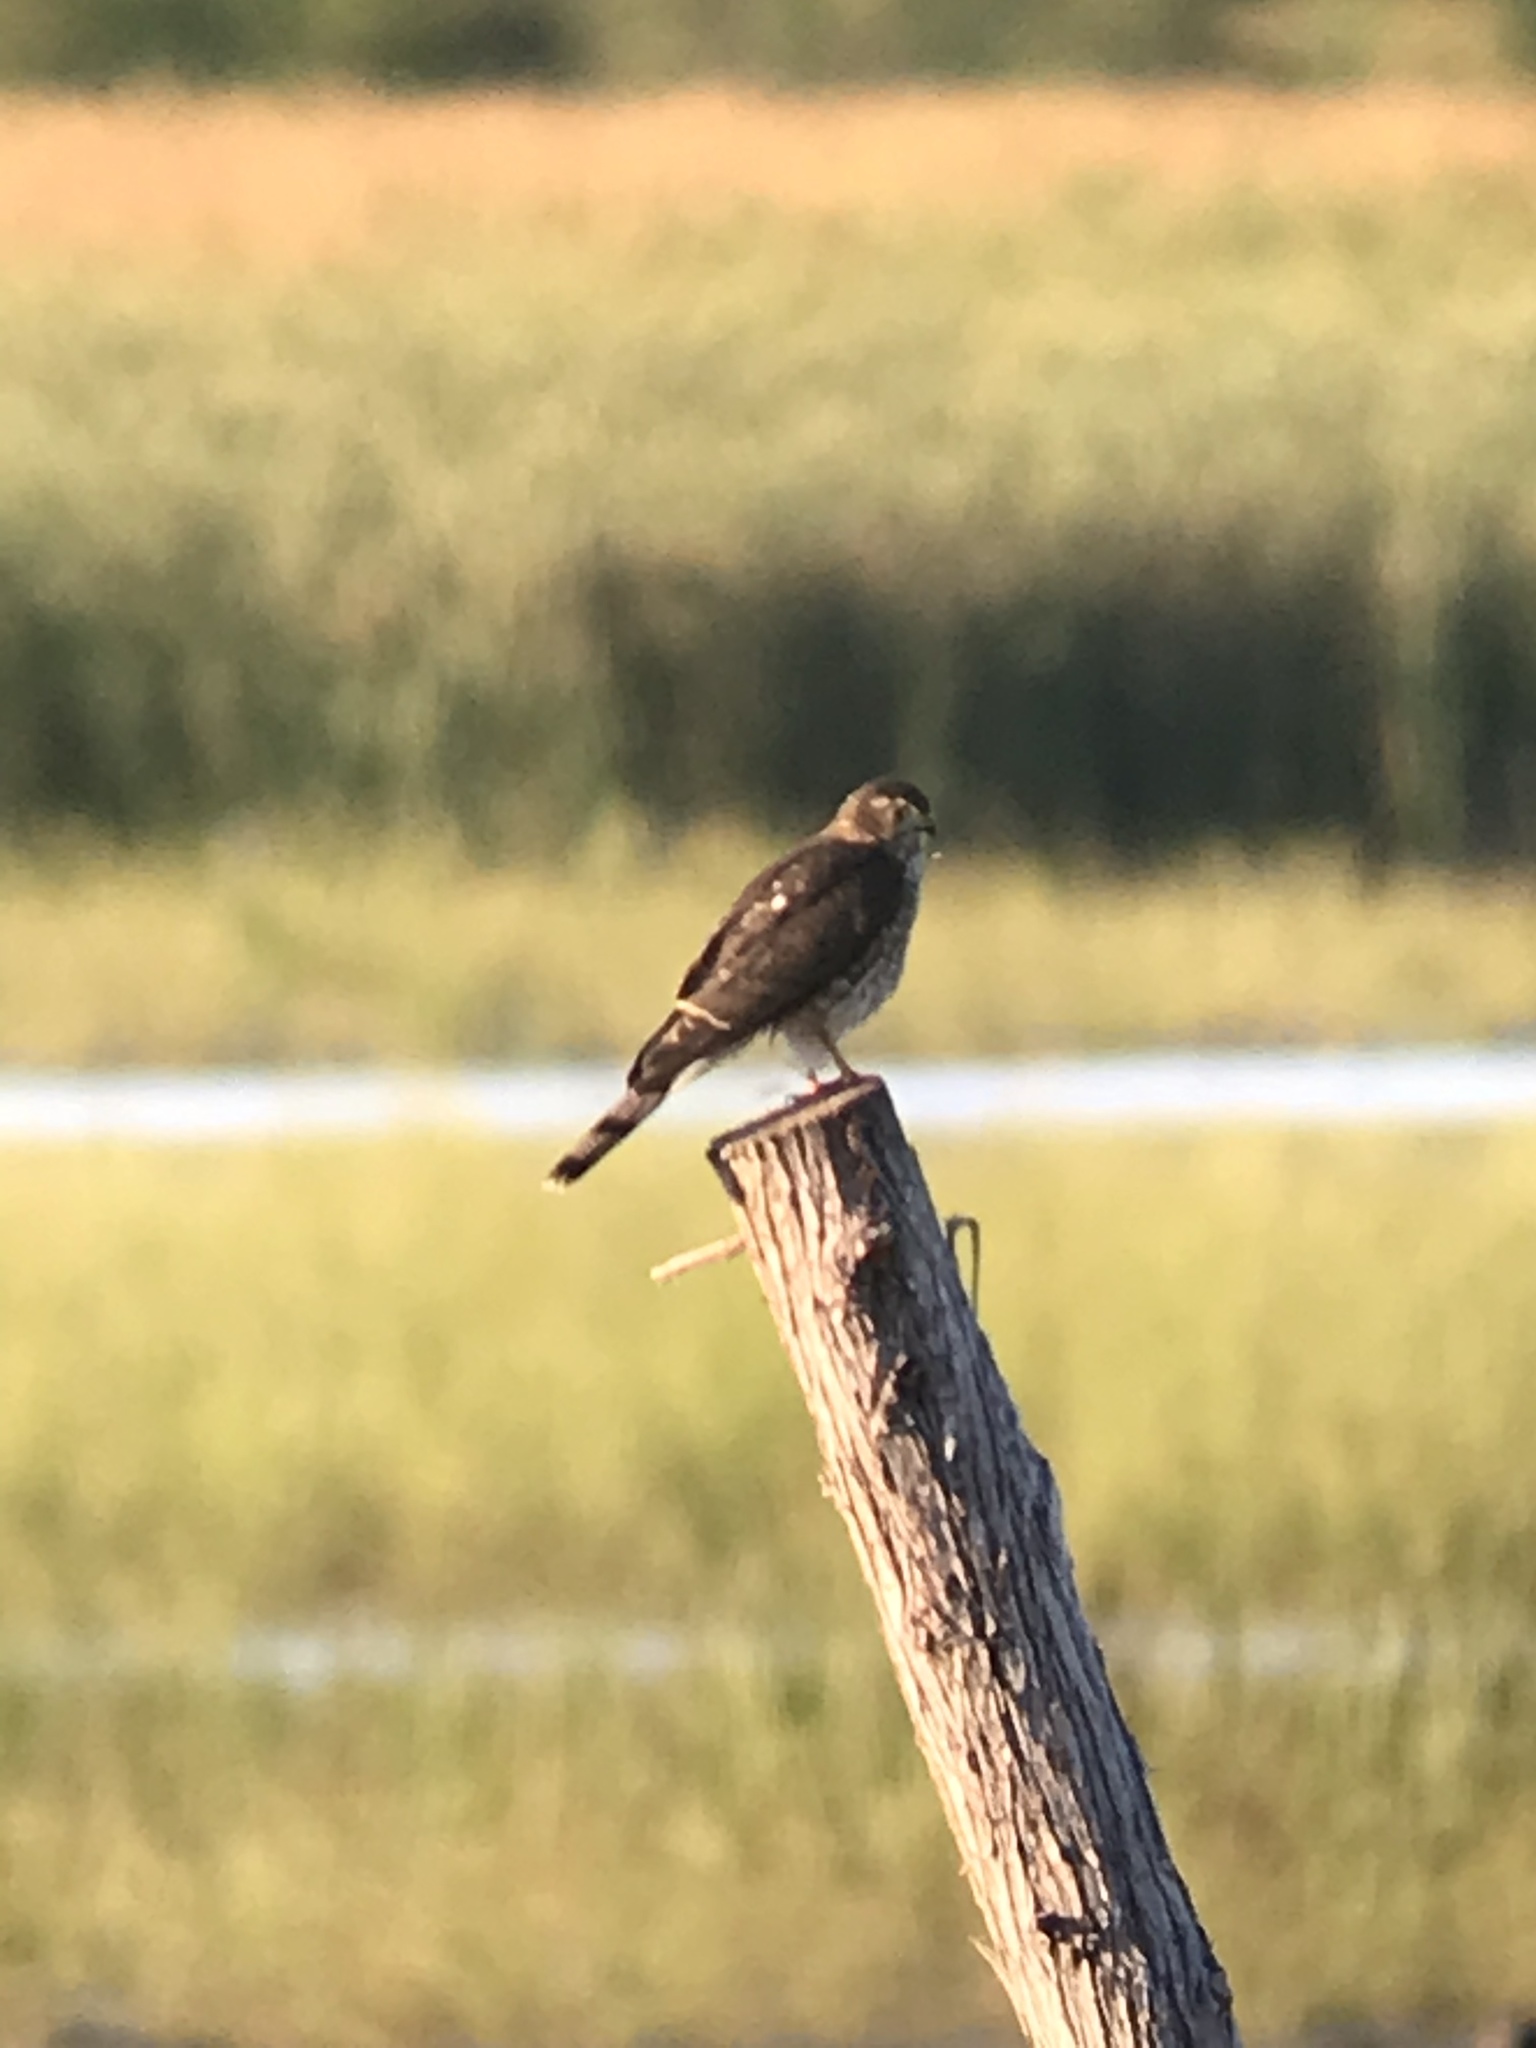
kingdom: Animalia
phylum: Chordata
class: Aves
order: Accipitriformes
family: Accipitridae
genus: Accipiter
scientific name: Accipiter striatus
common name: Sharp-shinned hawk
